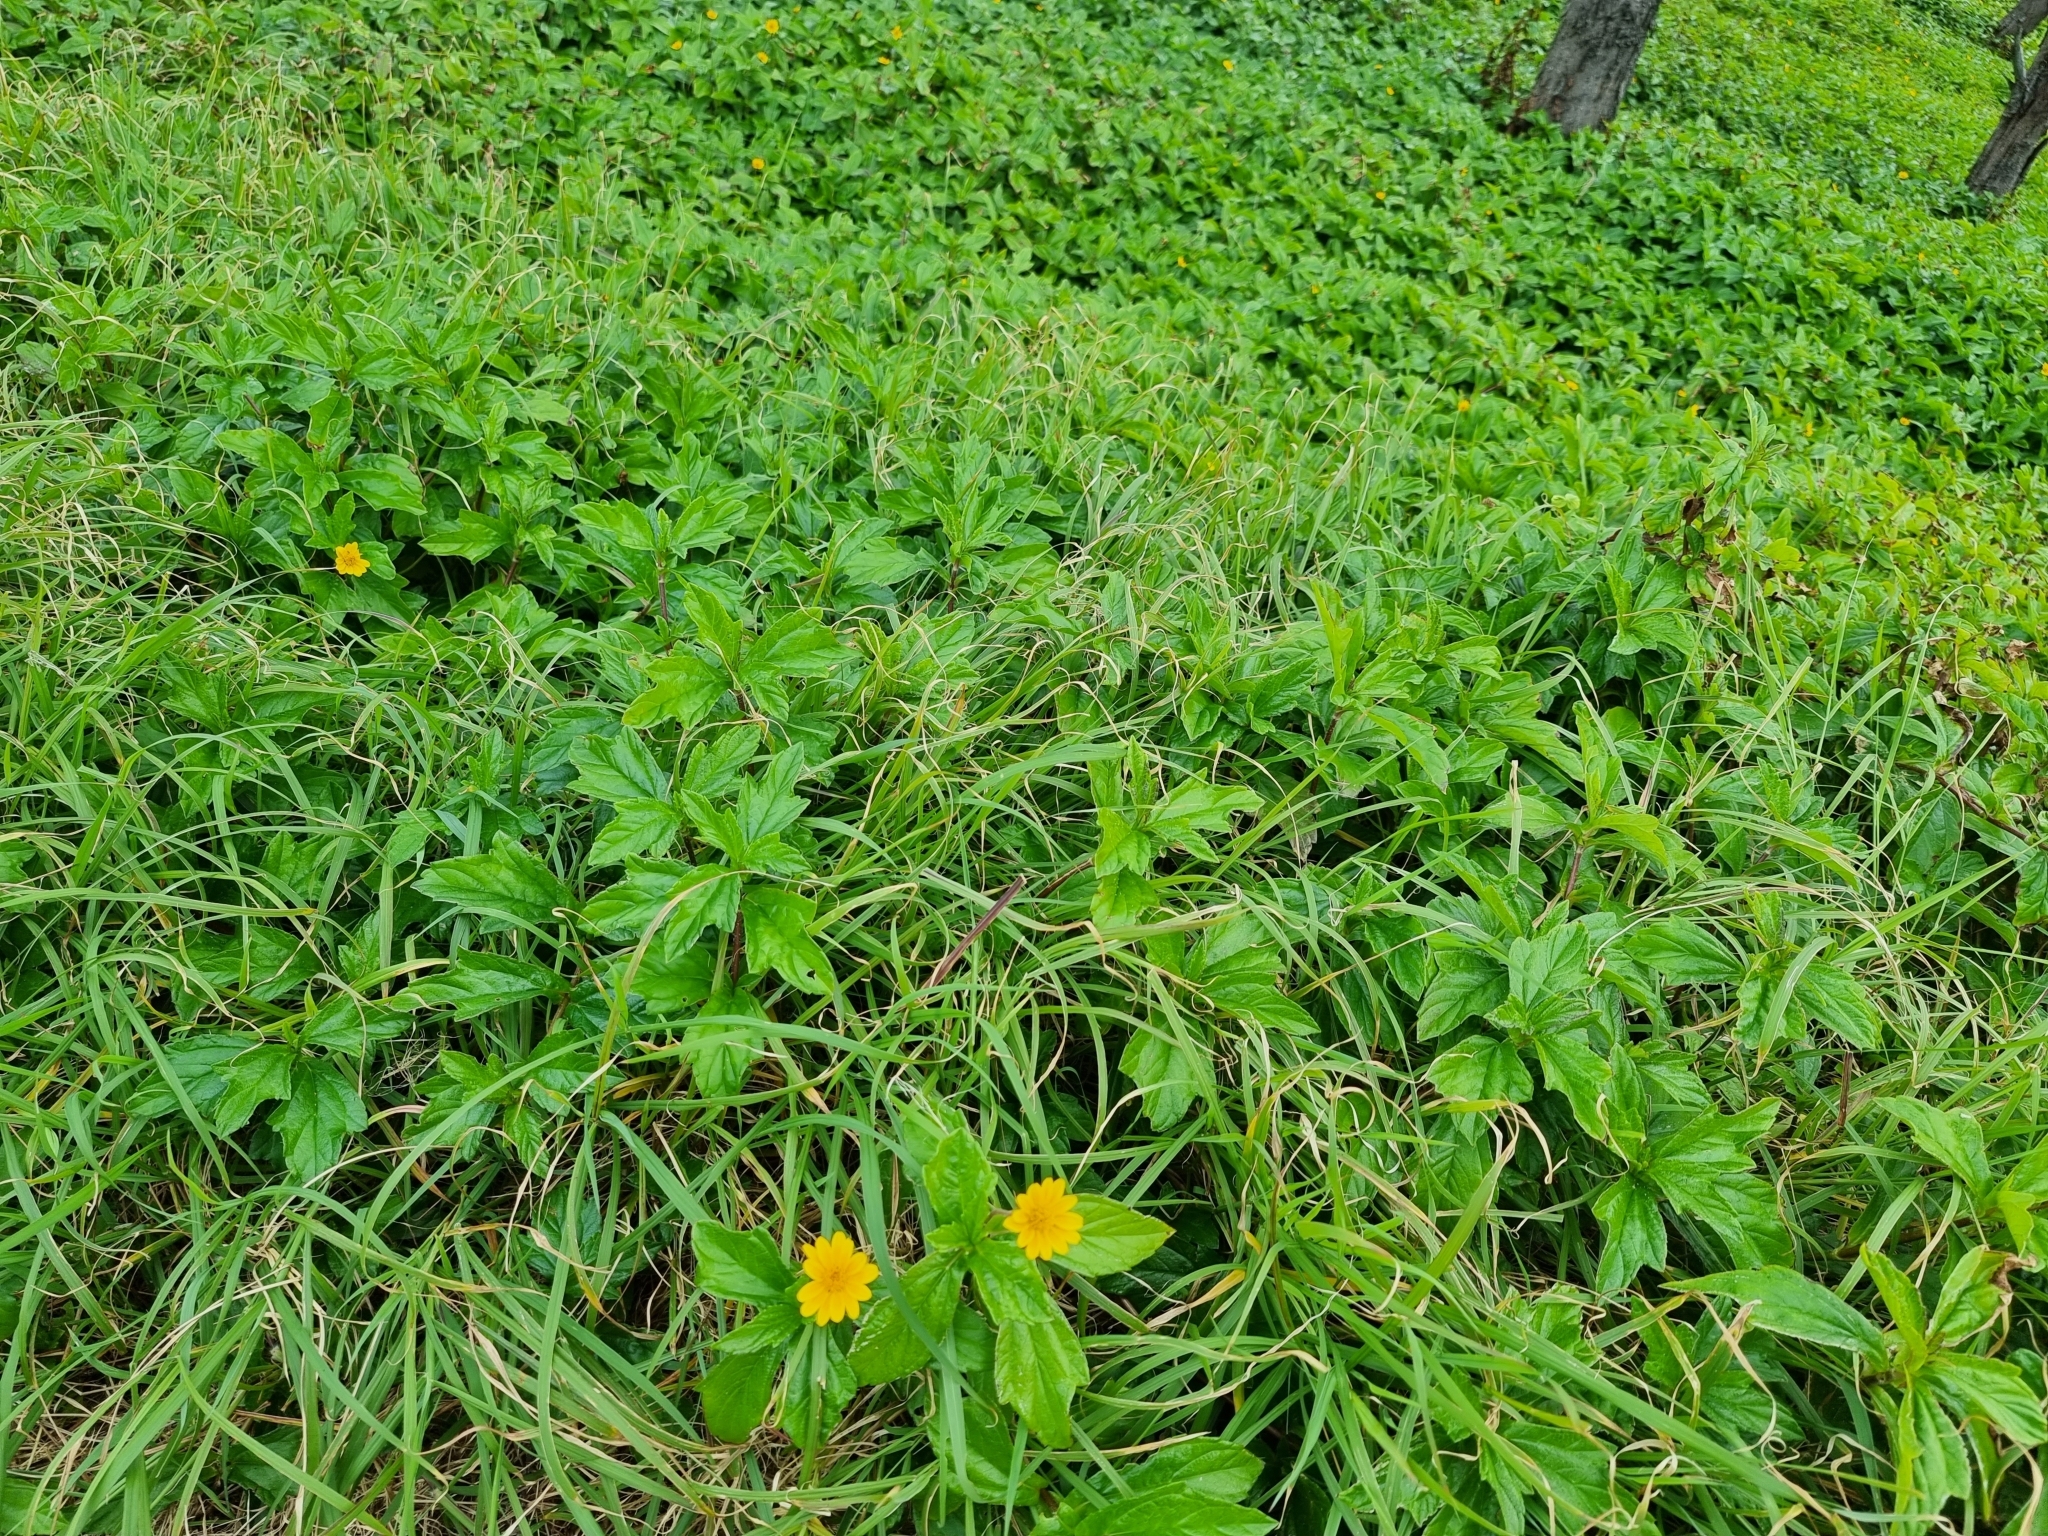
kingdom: Plantae
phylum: Tracheophyta
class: Magnoliopsida
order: Asterales
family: Asteraceae
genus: Sphagneticola
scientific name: Sphagneticola trilobata
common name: Bay biscayne creeping-oxeye
